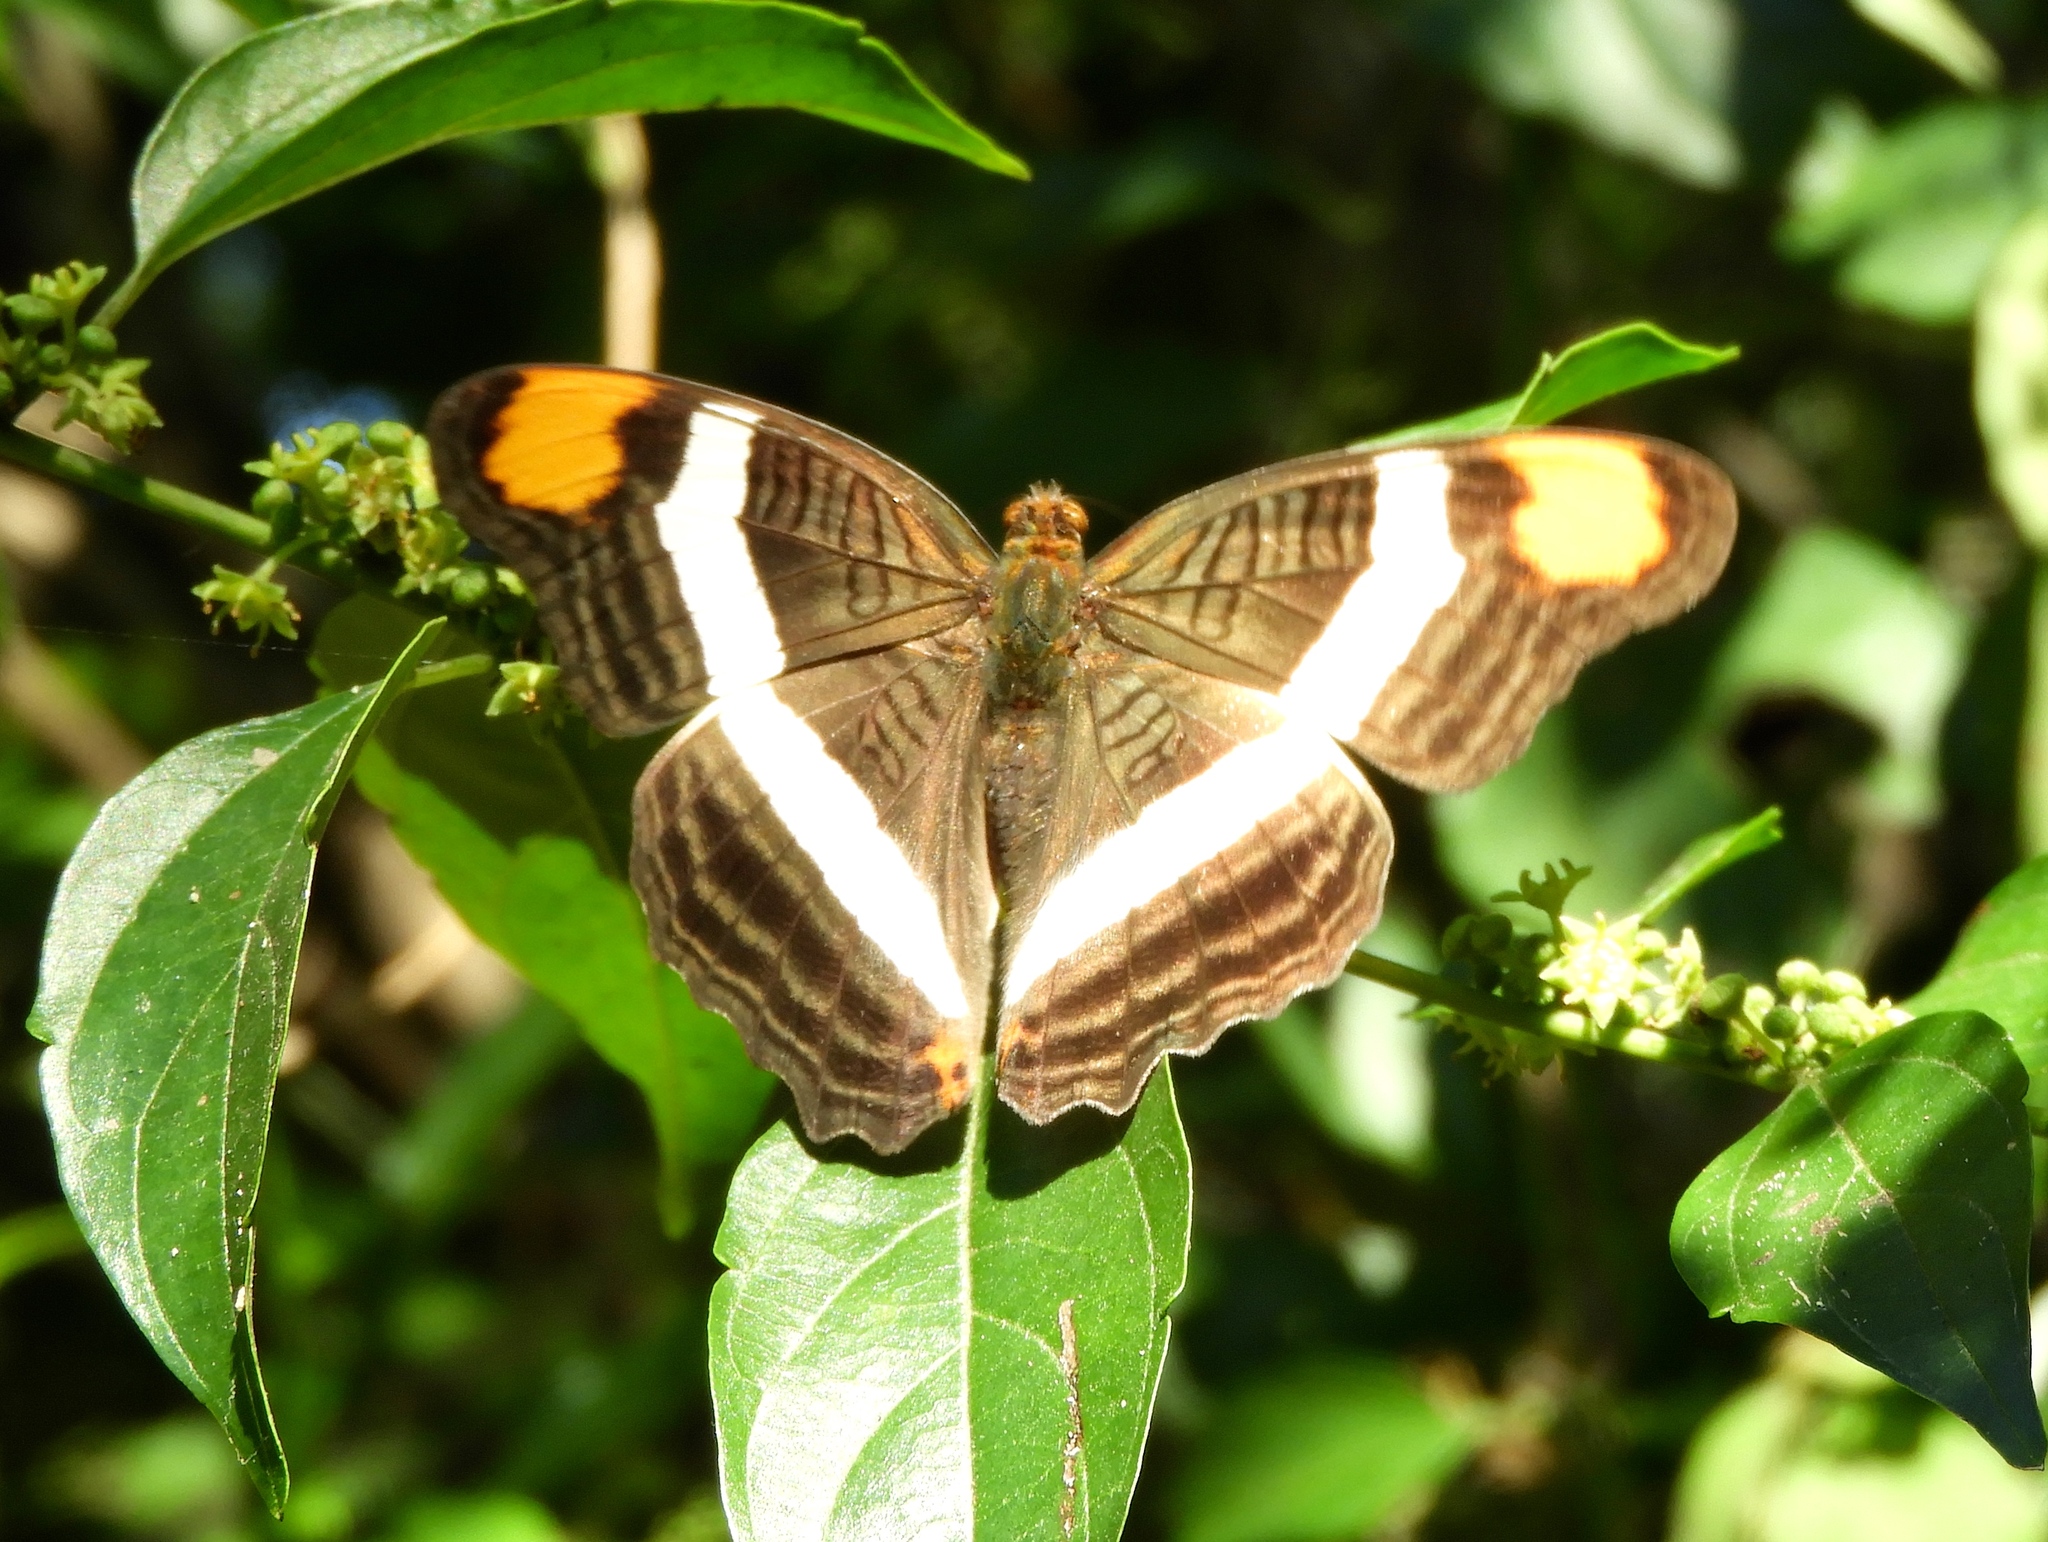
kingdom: Animalia
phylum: Arthropoda
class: Insecta
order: Lepidoptera
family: Nymphalidae
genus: Limenitis
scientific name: Limenitis fessonia
